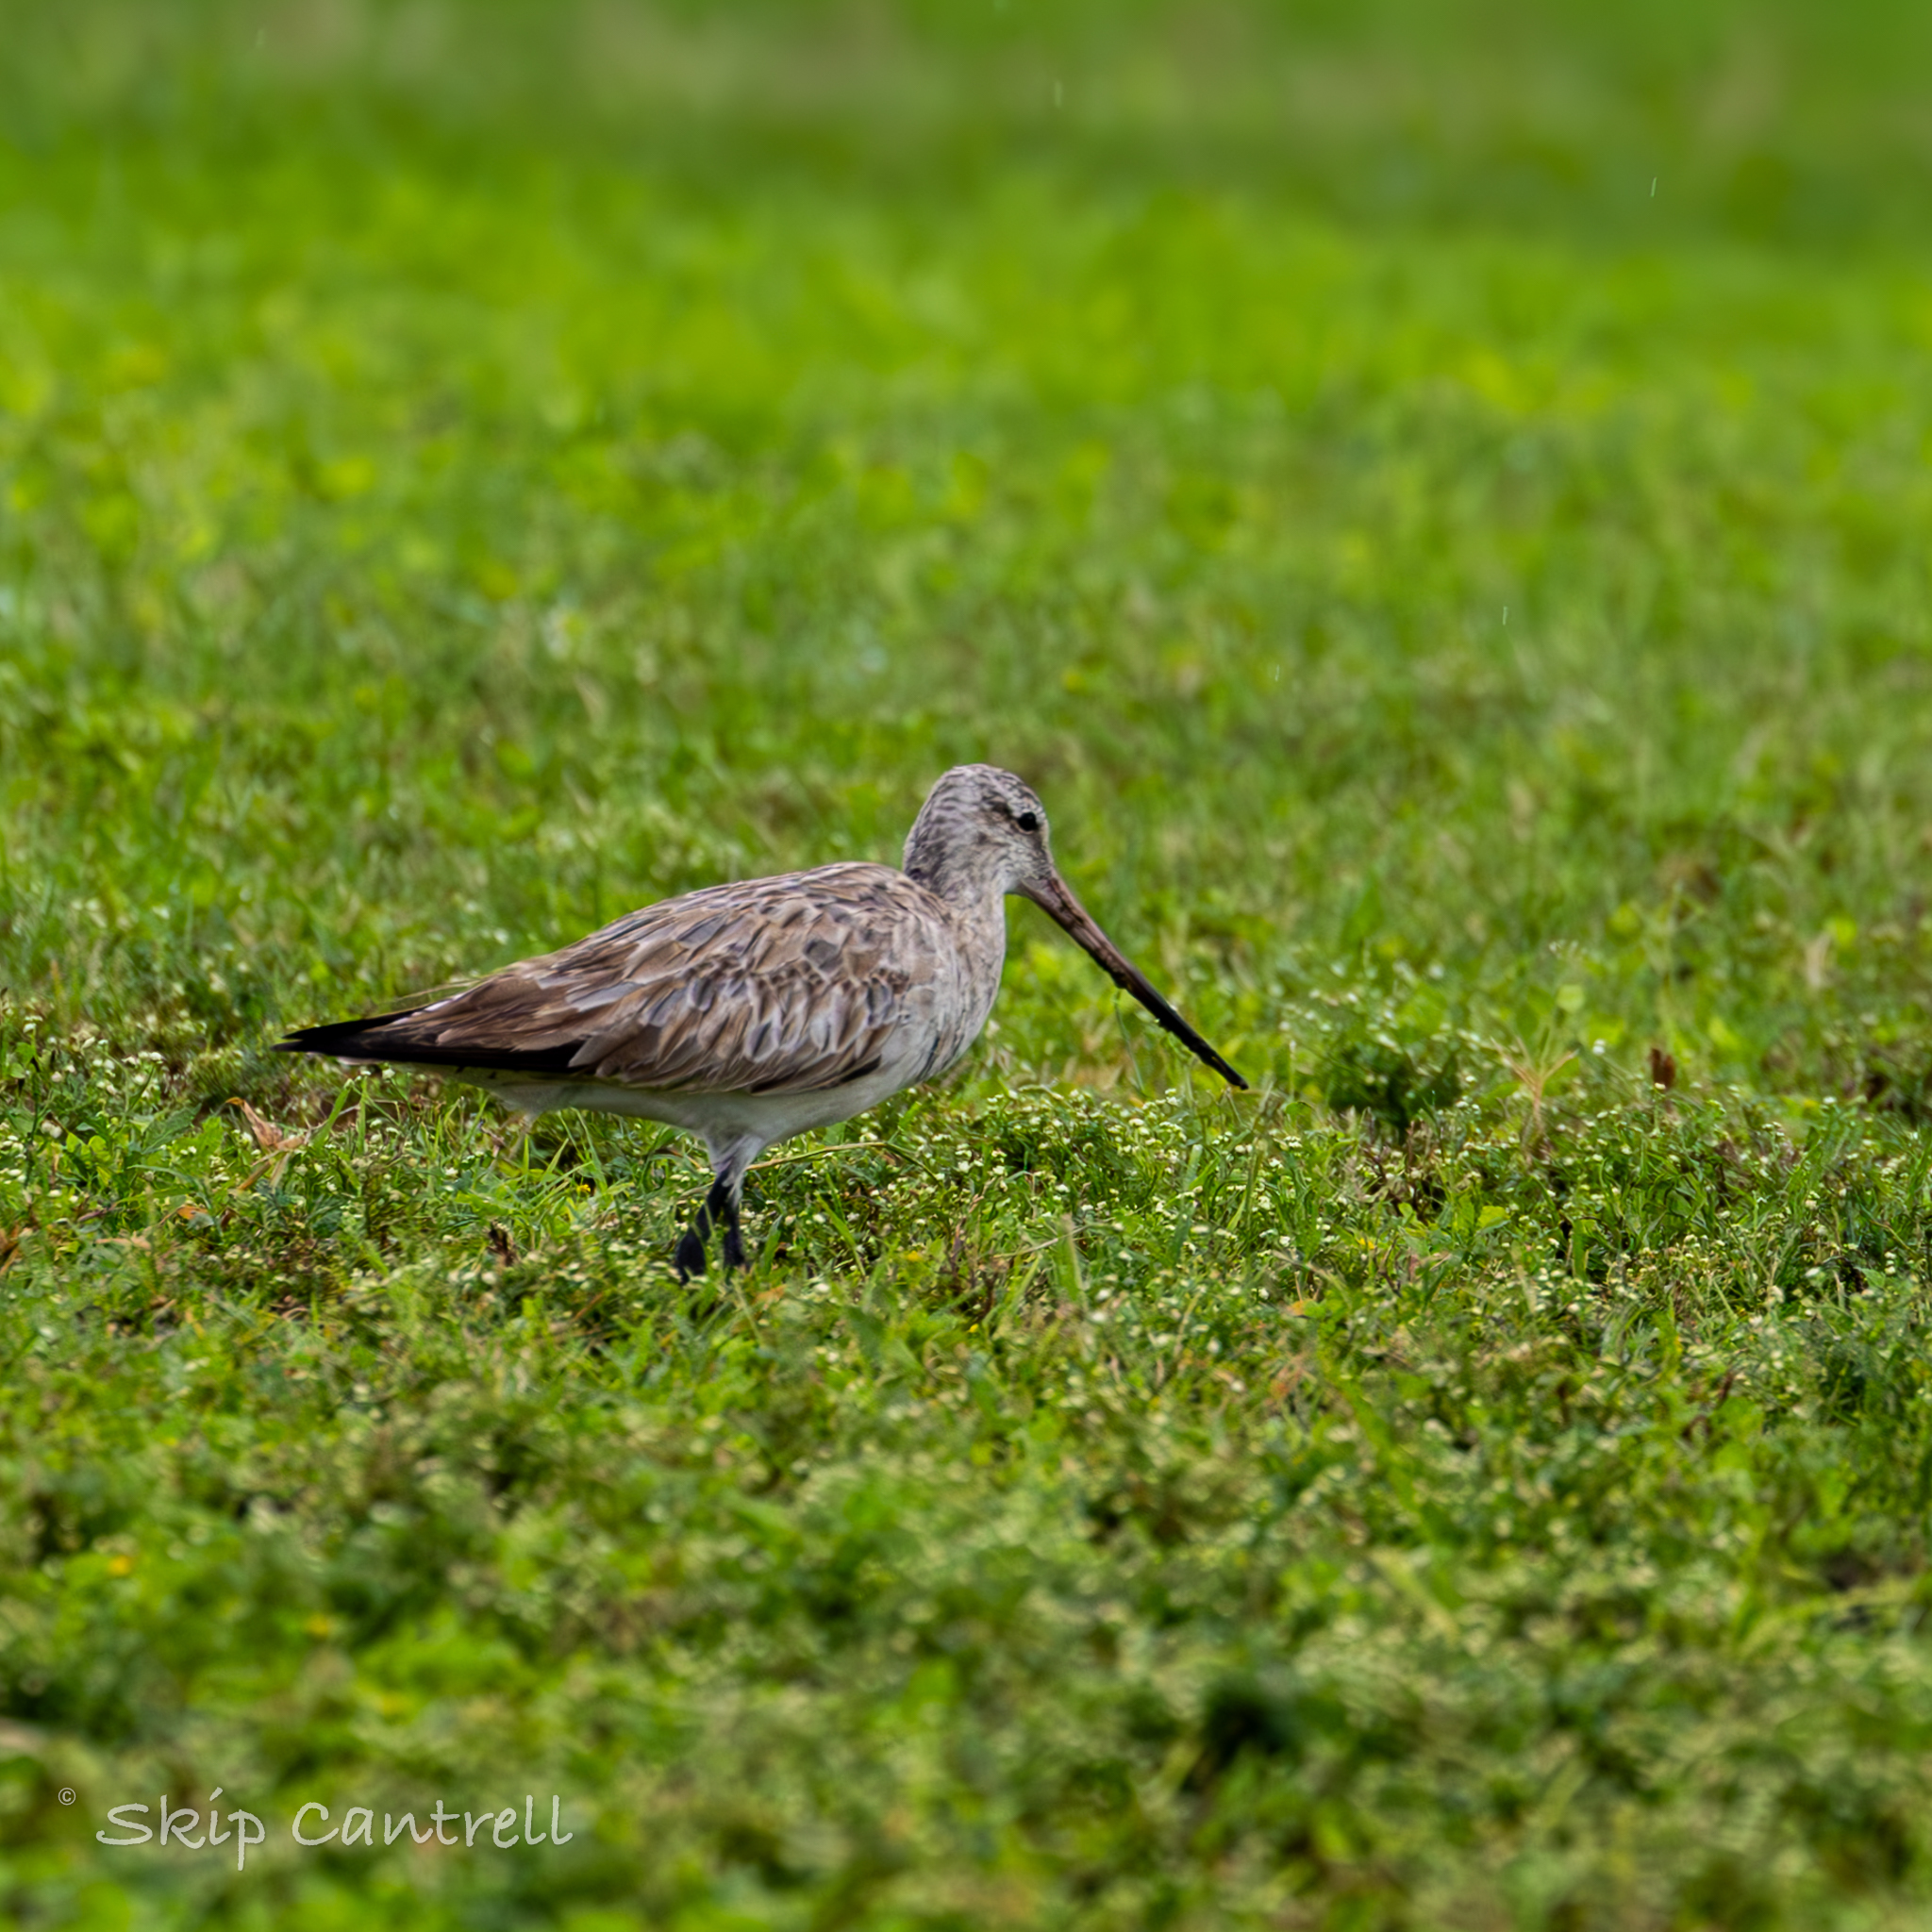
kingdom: Animalia
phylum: Chordata
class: Aves
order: Charadriiformes
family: Scolopacidae
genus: Limosa
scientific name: Limosa lapponica
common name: Bar-tailed godwit
